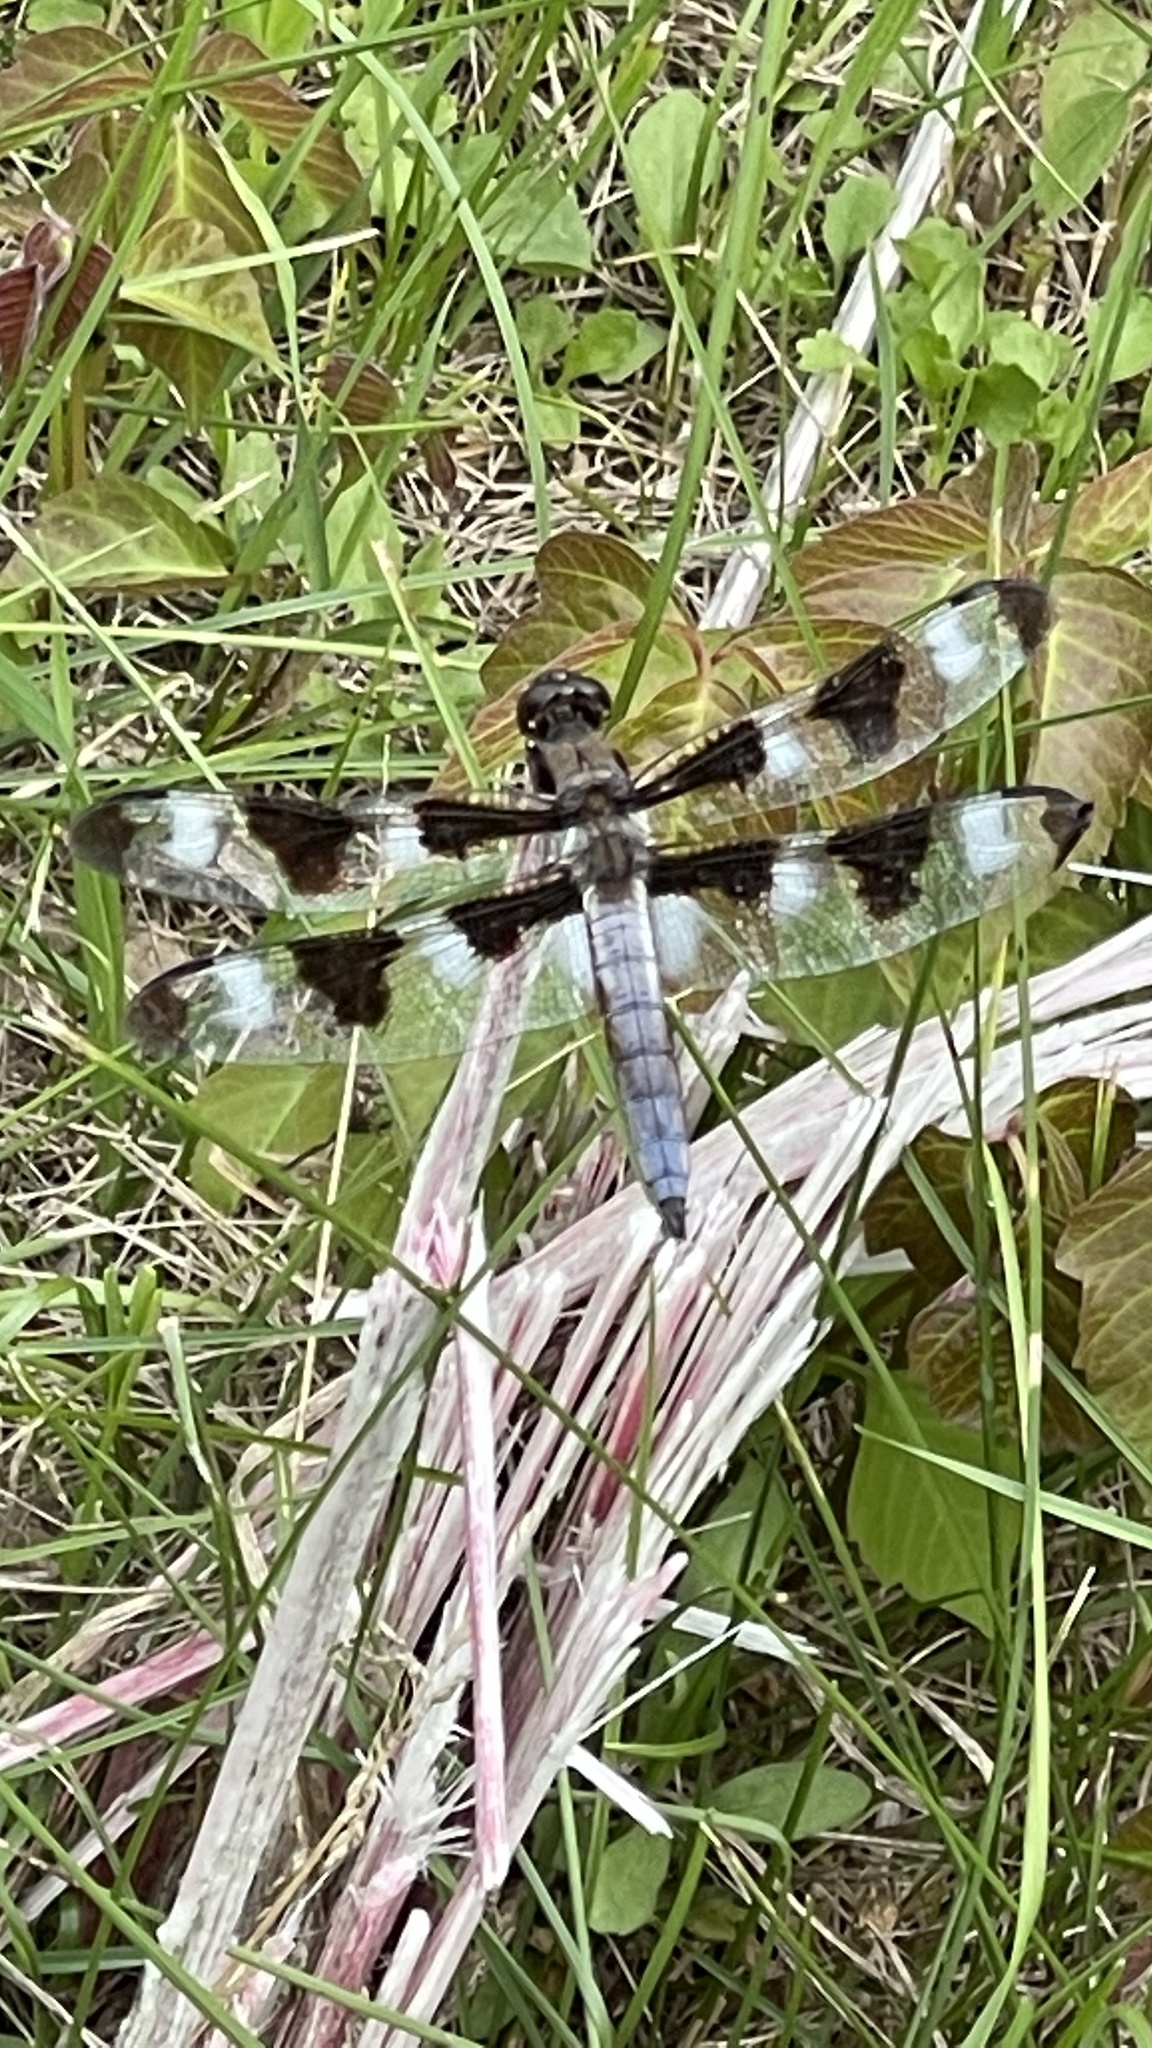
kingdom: Animalia
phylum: Arthropoda
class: Insecta
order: Odonata
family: Libellulidae
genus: Libellula
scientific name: Libellula pulchella
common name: Twelve-spotted skimmer
